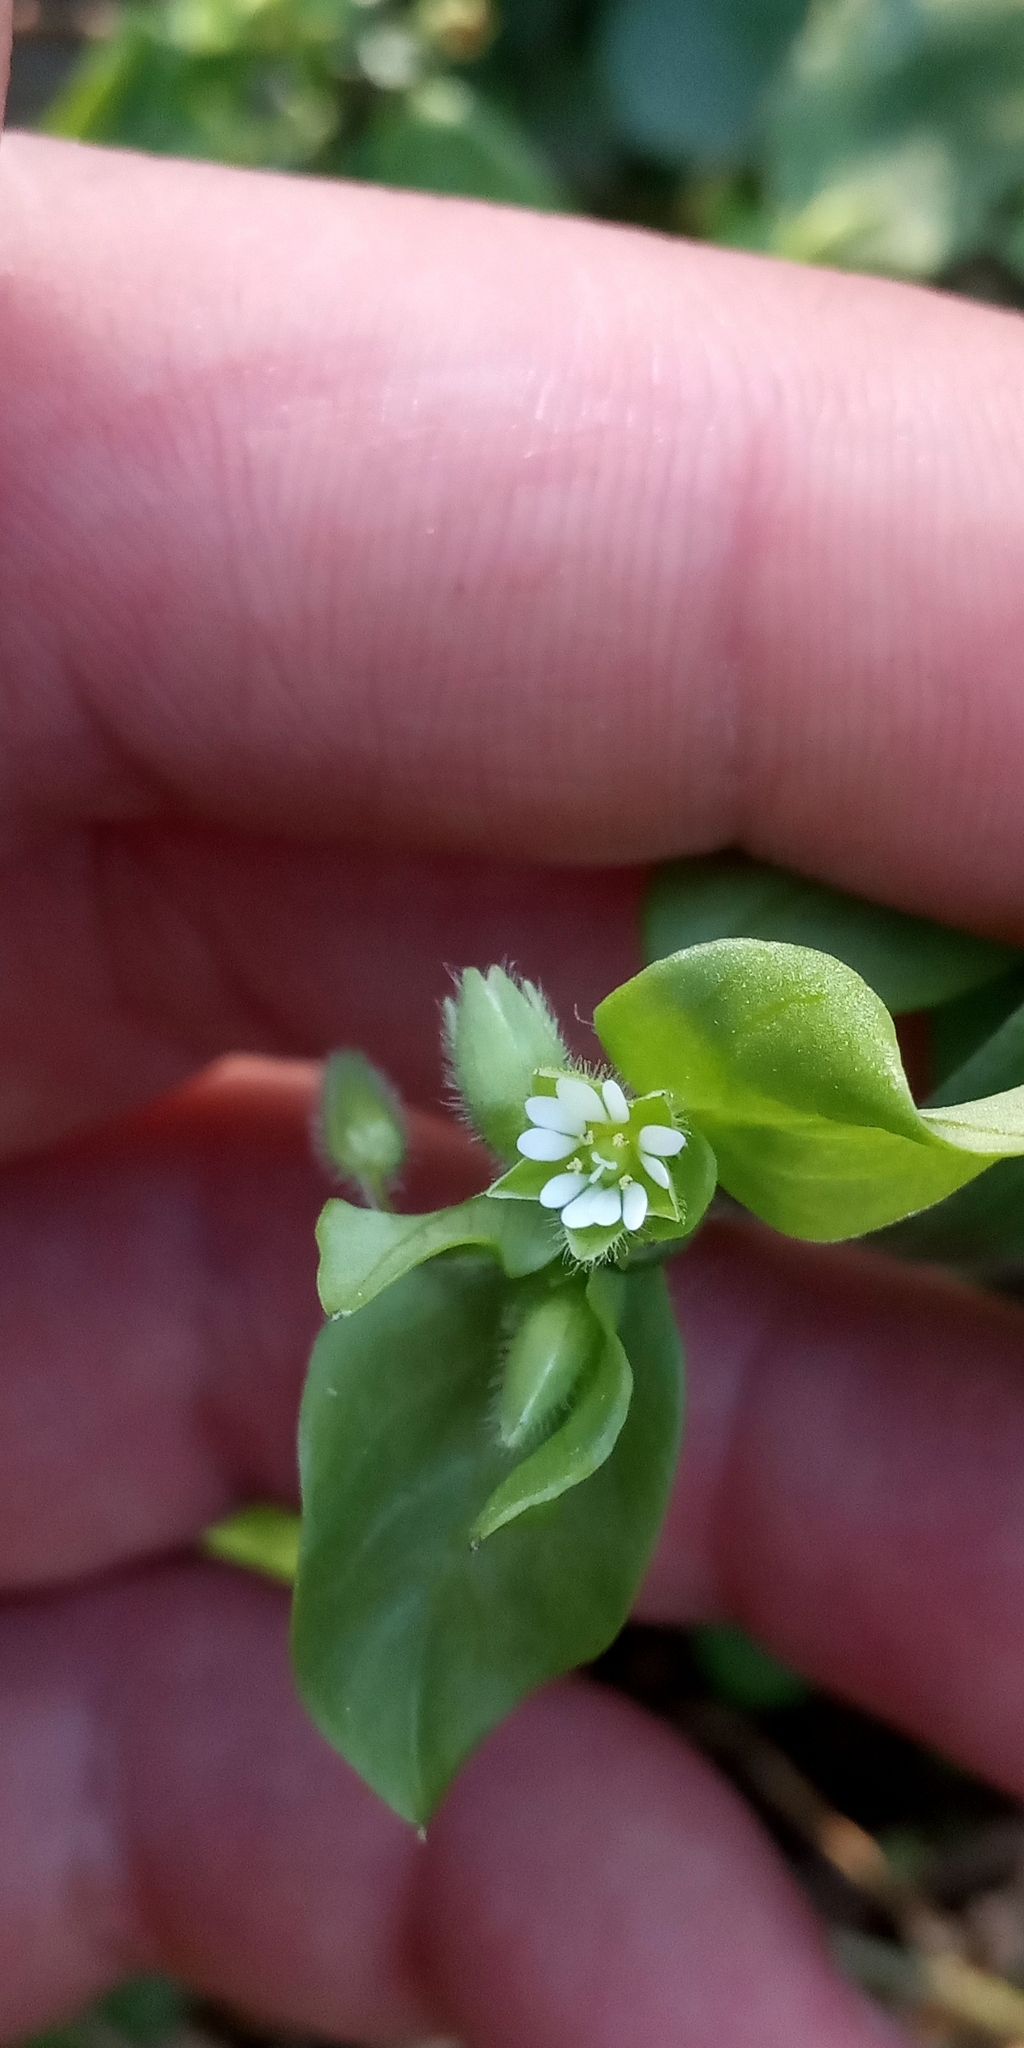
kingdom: Plantae
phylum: Tracheophyta
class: Magnoliopsida
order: Caryophyllales
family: Caryophyllaceae
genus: Stellaria
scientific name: Stellaria media
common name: Common chickweed
